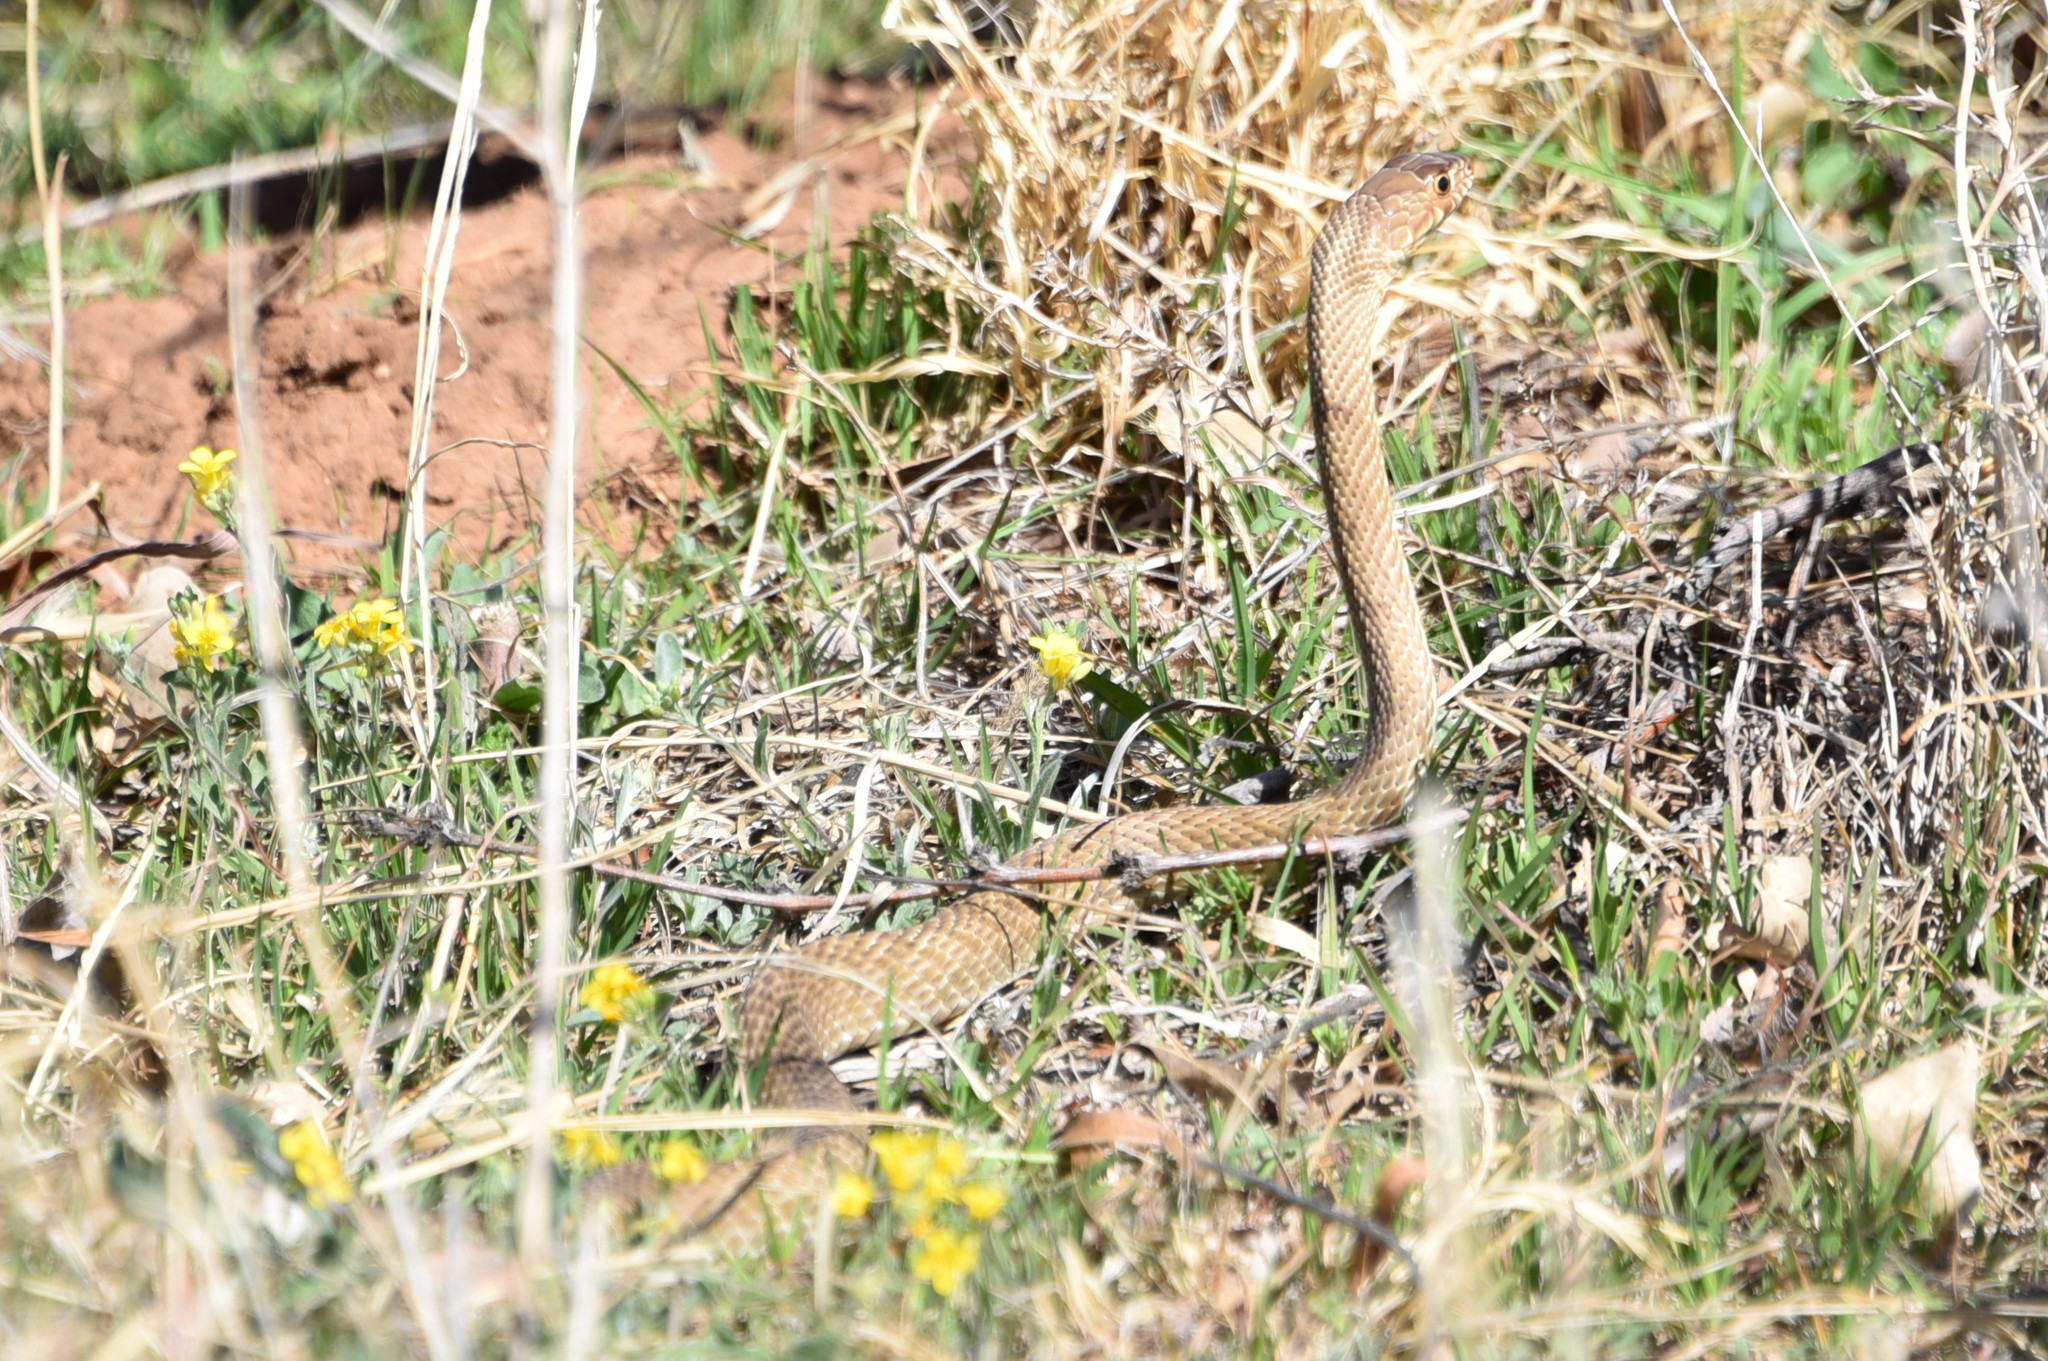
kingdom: Animalia
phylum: Chordata
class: Squamata
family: Colubridae
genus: Masticophis
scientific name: Masticophis flagellum
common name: Coachwhip
